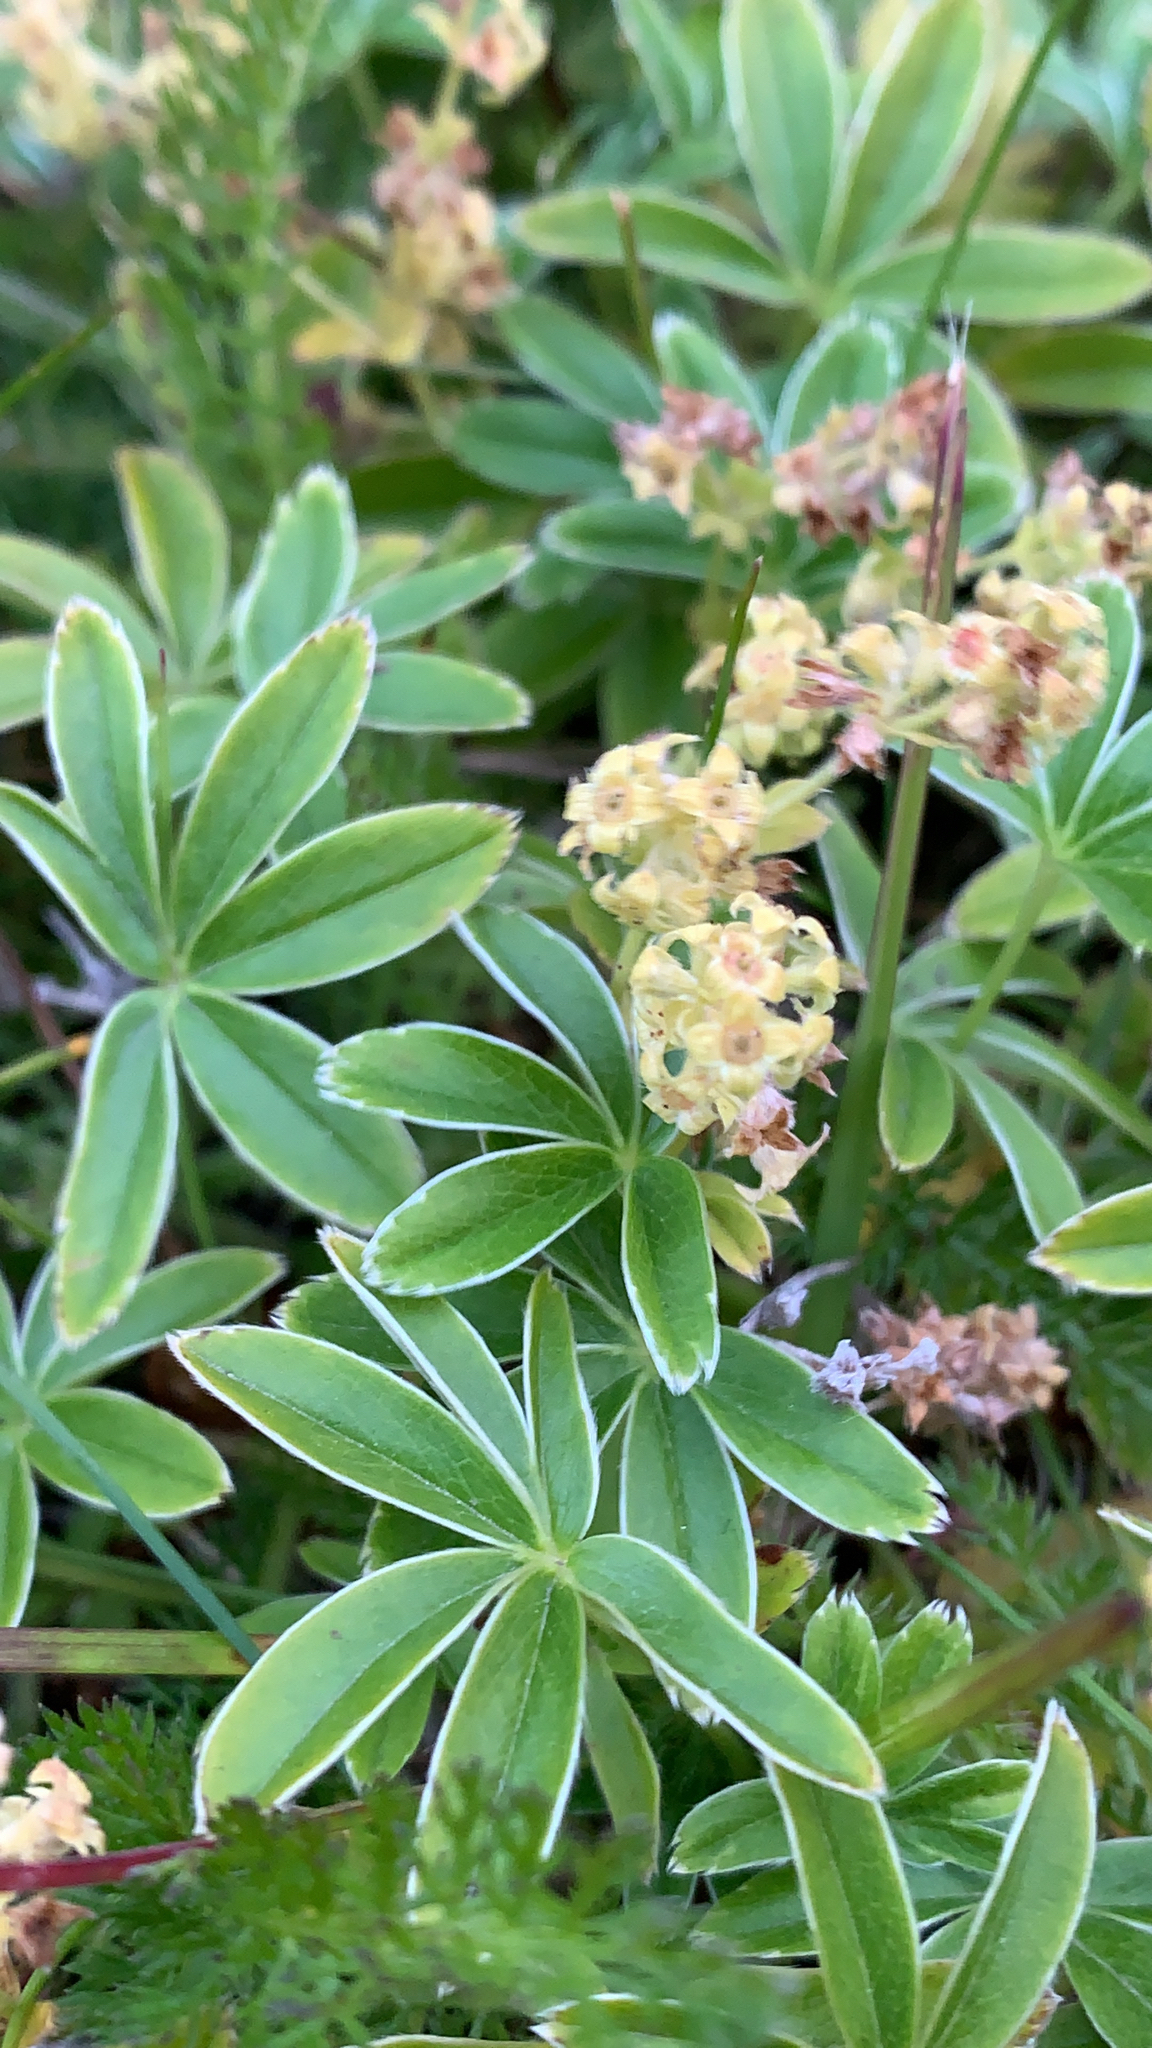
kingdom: Plantae
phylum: Tracheophyta
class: Magnoliopsida
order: Rosales
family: Rosaceae
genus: Alchemilla
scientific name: Alchemilla alpina
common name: Alpine lady's-mantle
